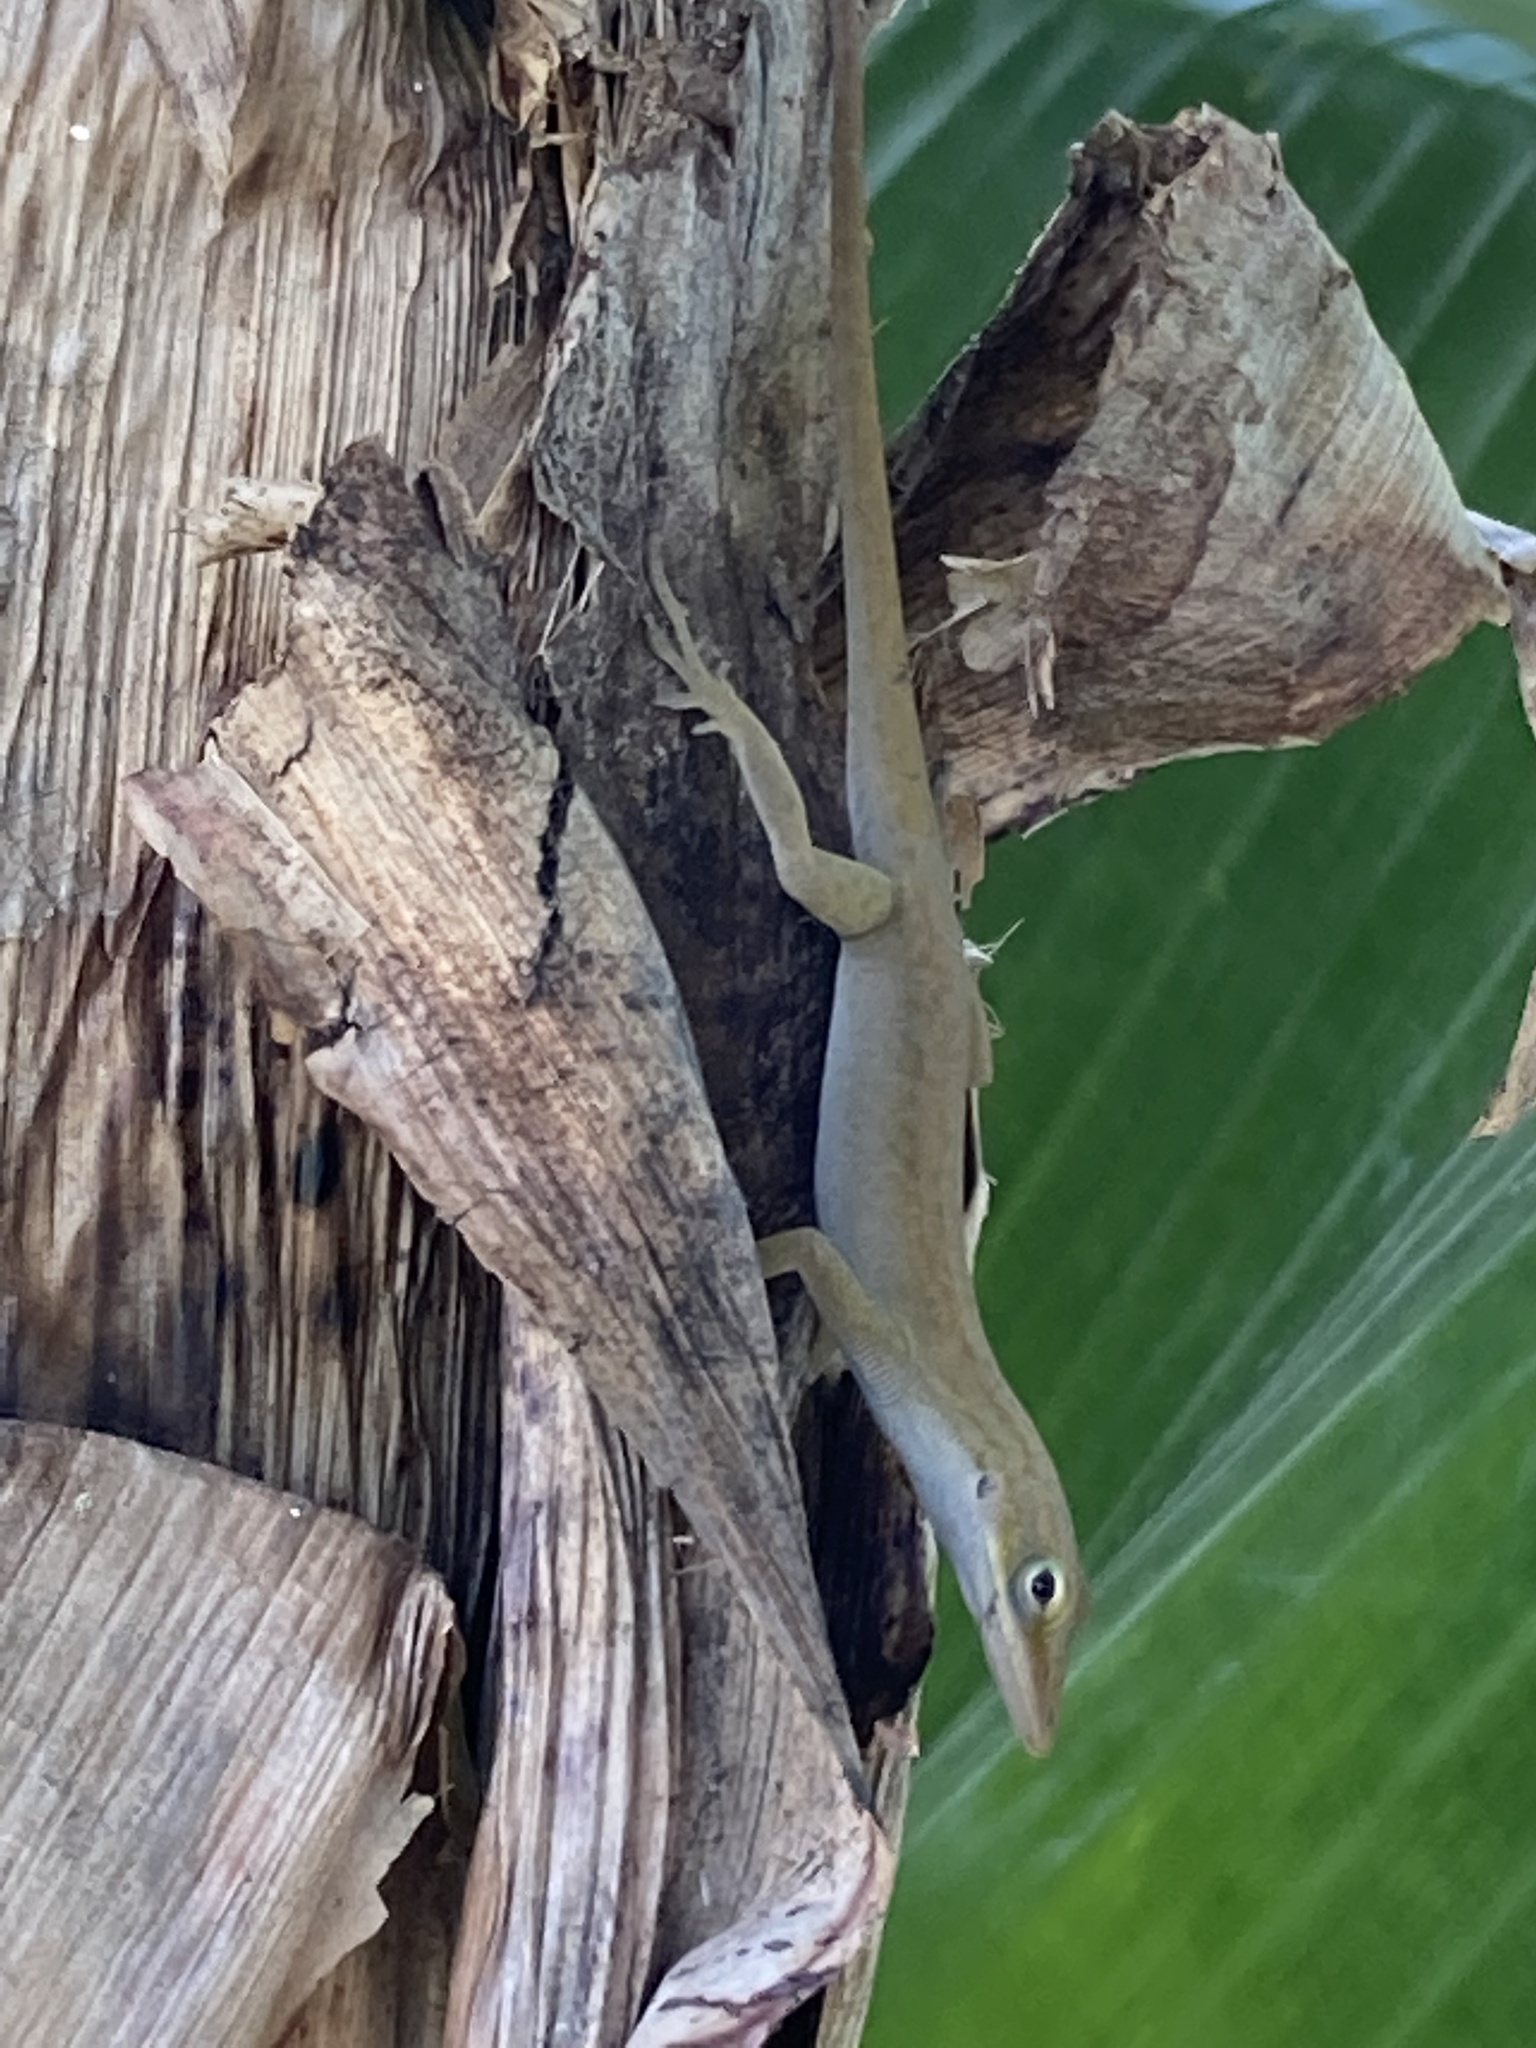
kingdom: Animalia
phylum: Chordata
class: Squamata
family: Dactyloidae
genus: Anolis
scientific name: Anolis carolinensis
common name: Green anole
